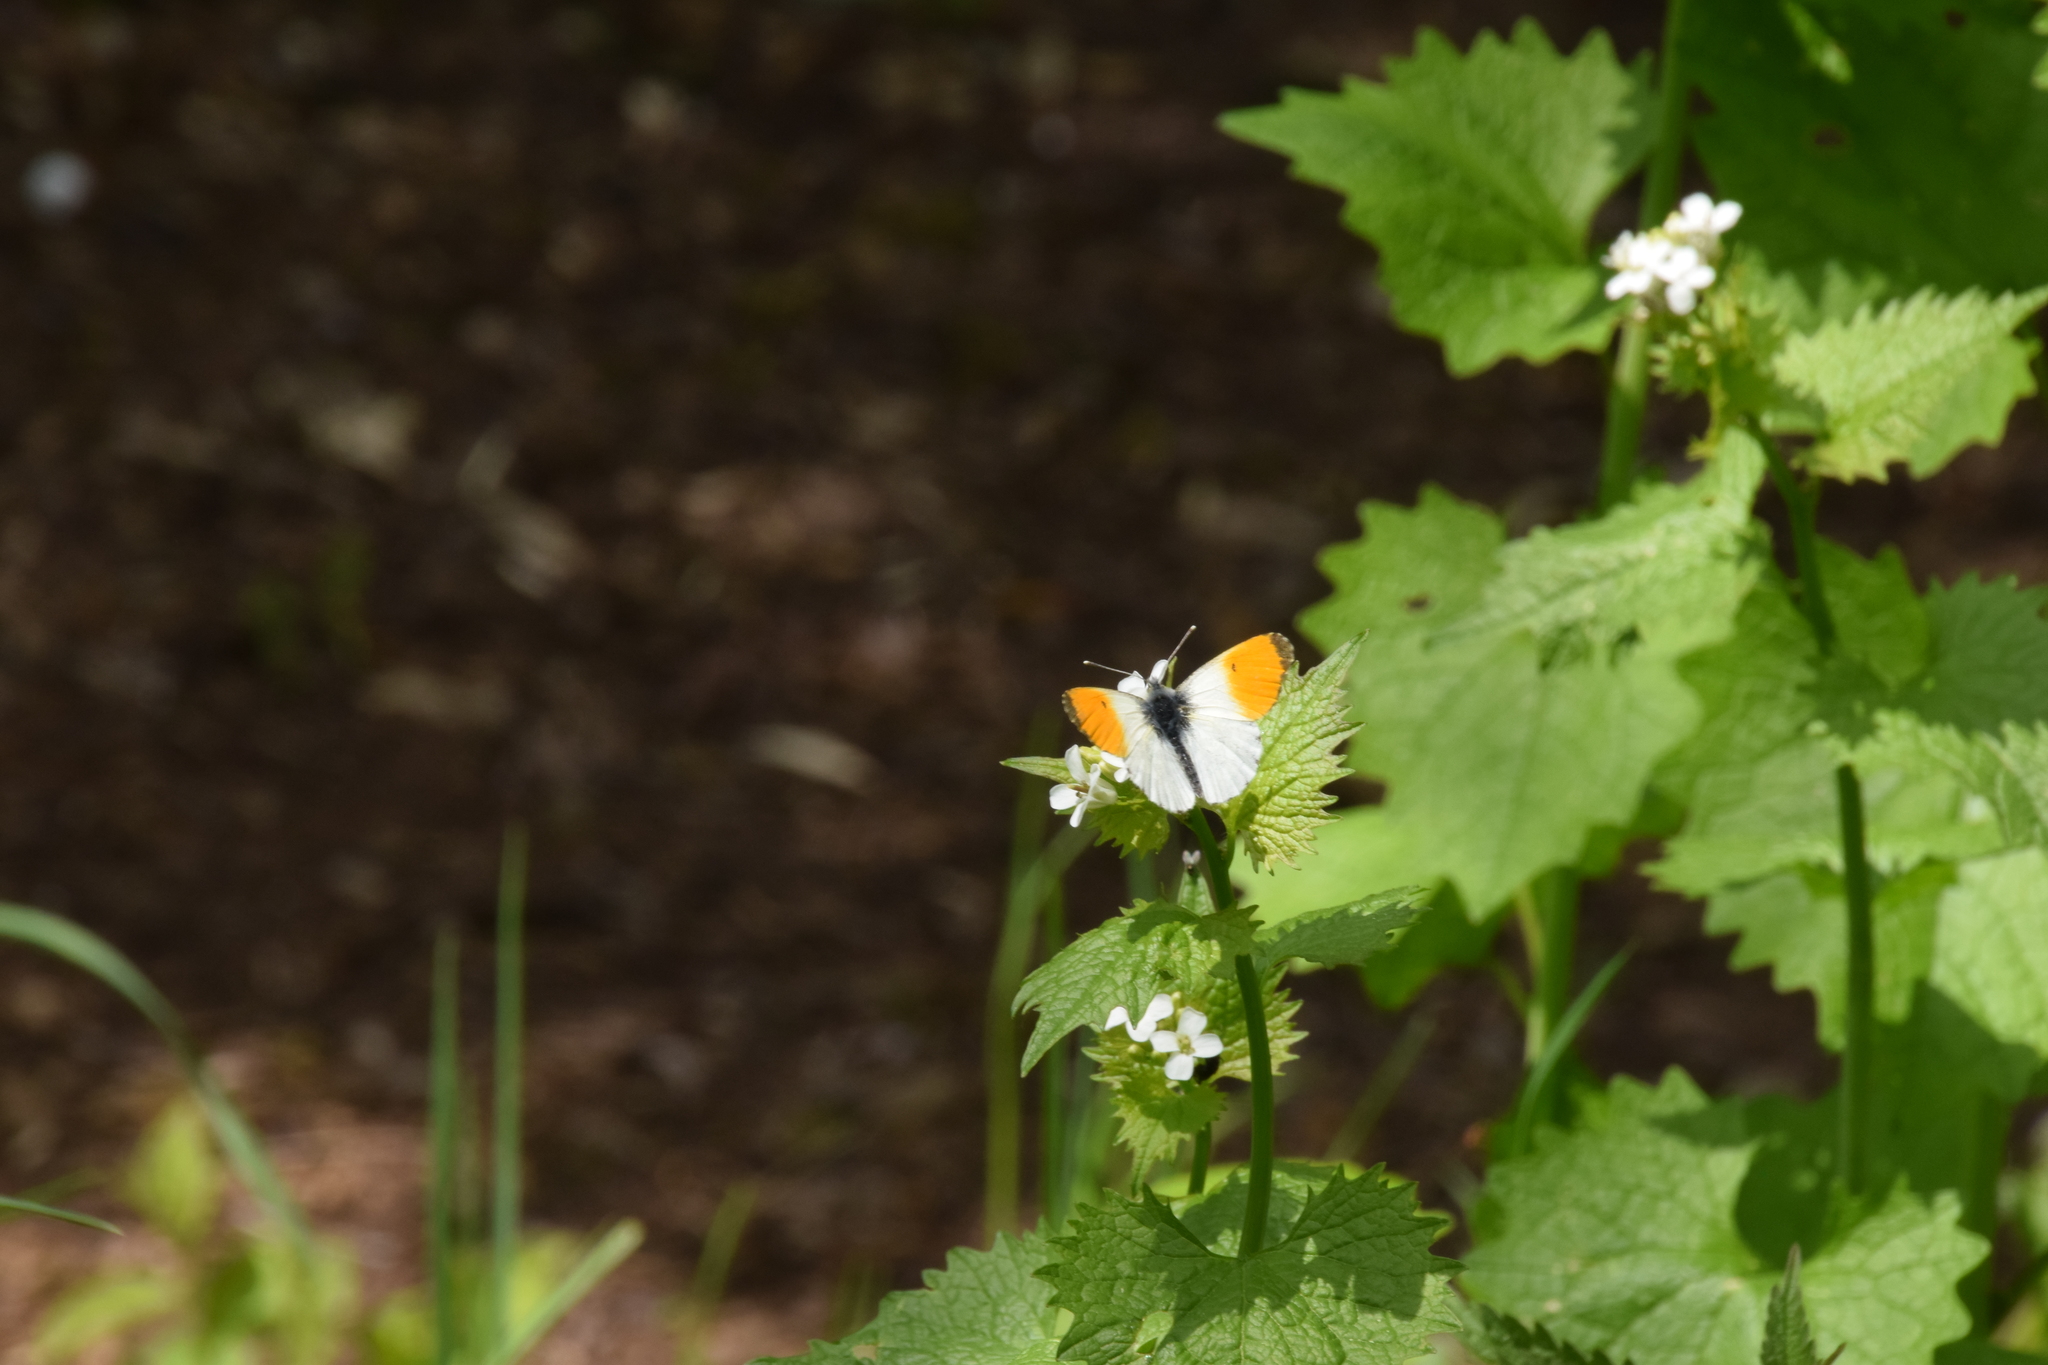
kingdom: Animalia
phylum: Arthropoda
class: Insecta
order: Lepidoptera
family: Pieridae
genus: Anthocharis
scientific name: Anthocharis cardamines
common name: Orange-tip
